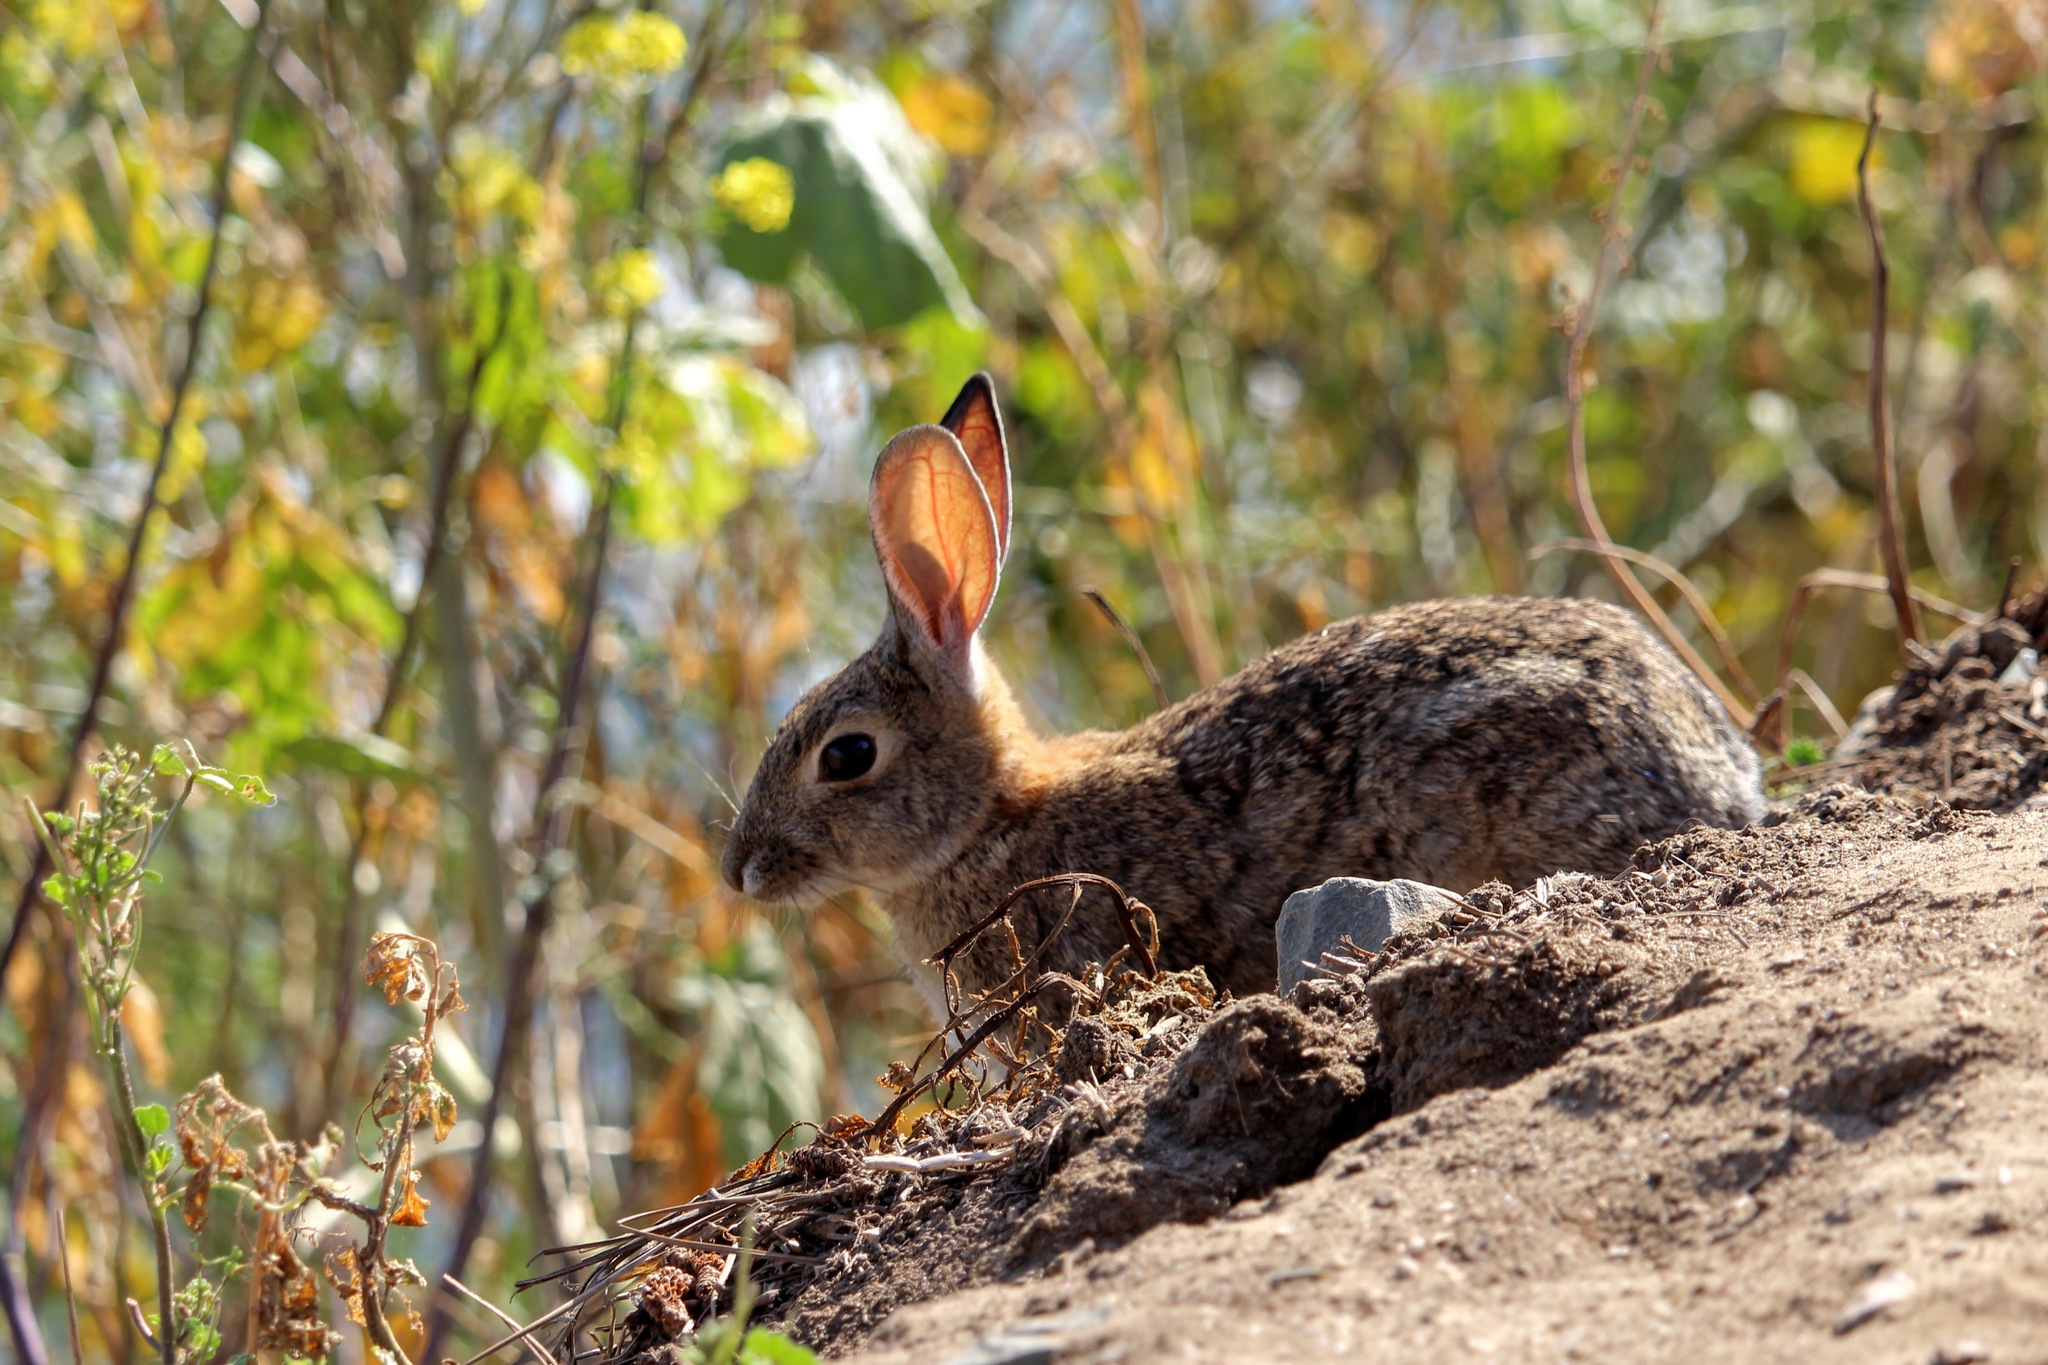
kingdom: Animalia
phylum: Chordata
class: Mammalia
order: Lagomorpha
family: Leporidae
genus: Sylvilagus
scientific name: Sylvilagus audubonii
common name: Desert cottontail
